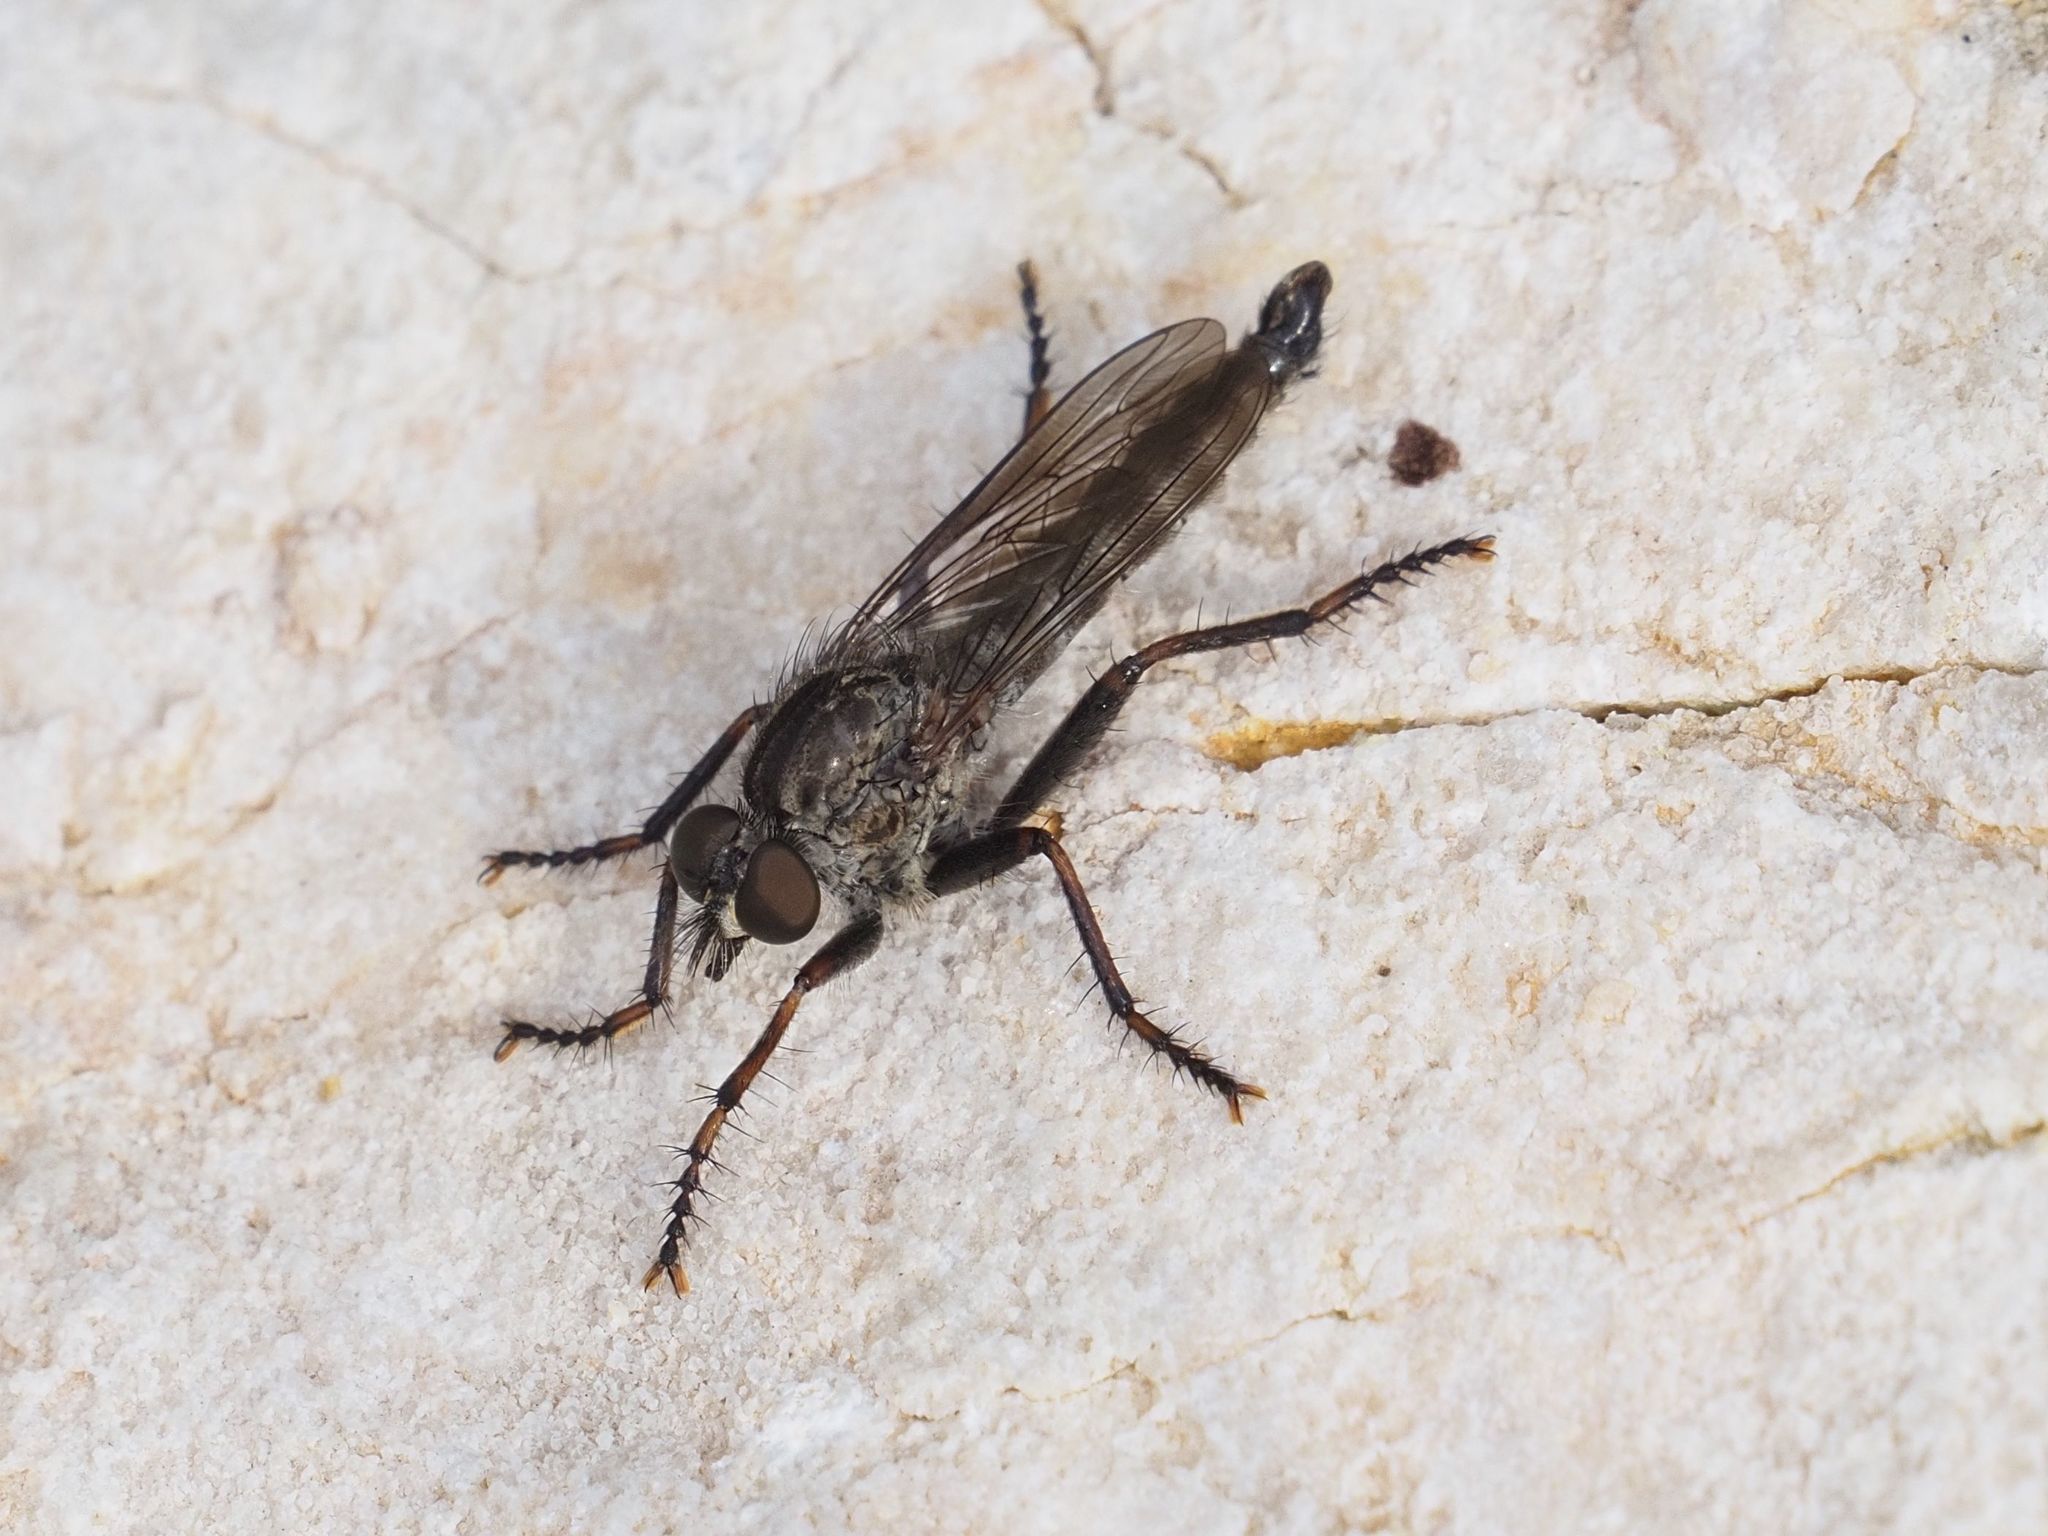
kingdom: Animalia
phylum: Arthropoda
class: Insecta
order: Diptera
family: Asilidae
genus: Machimus
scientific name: Machimus atricapillus
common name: Kite-tailed robberfly
